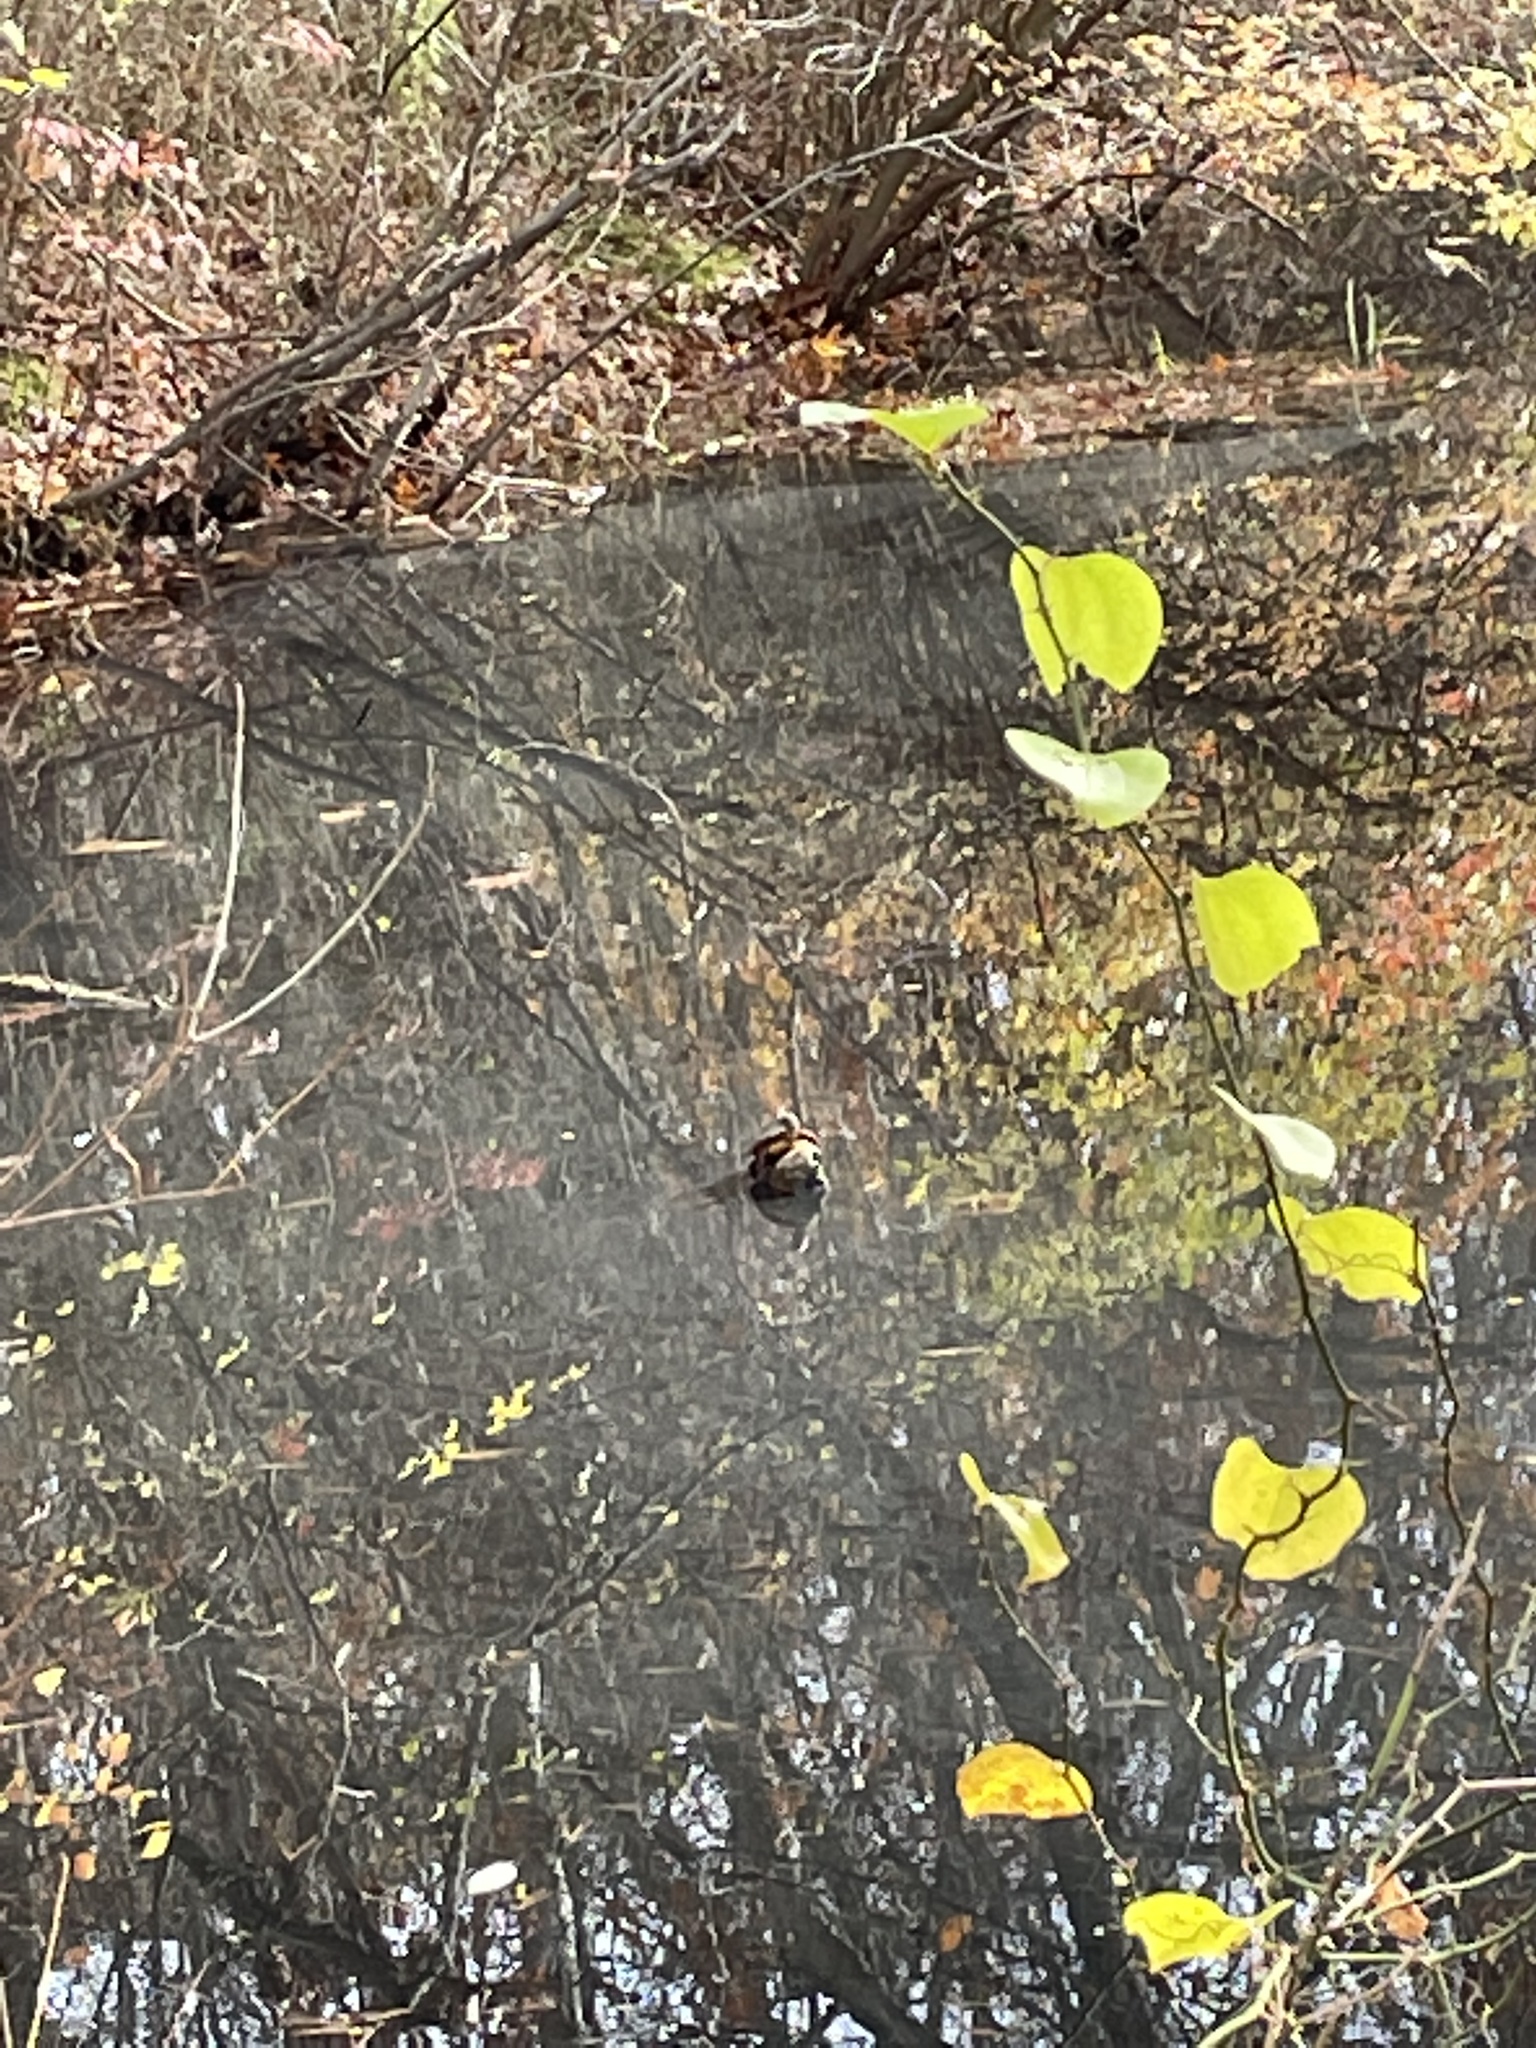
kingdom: Animalia
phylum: Chordata
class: Testudines
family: Emydidae
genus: Chrysemys
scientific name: Chrysemys picta
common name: Painted turtle
